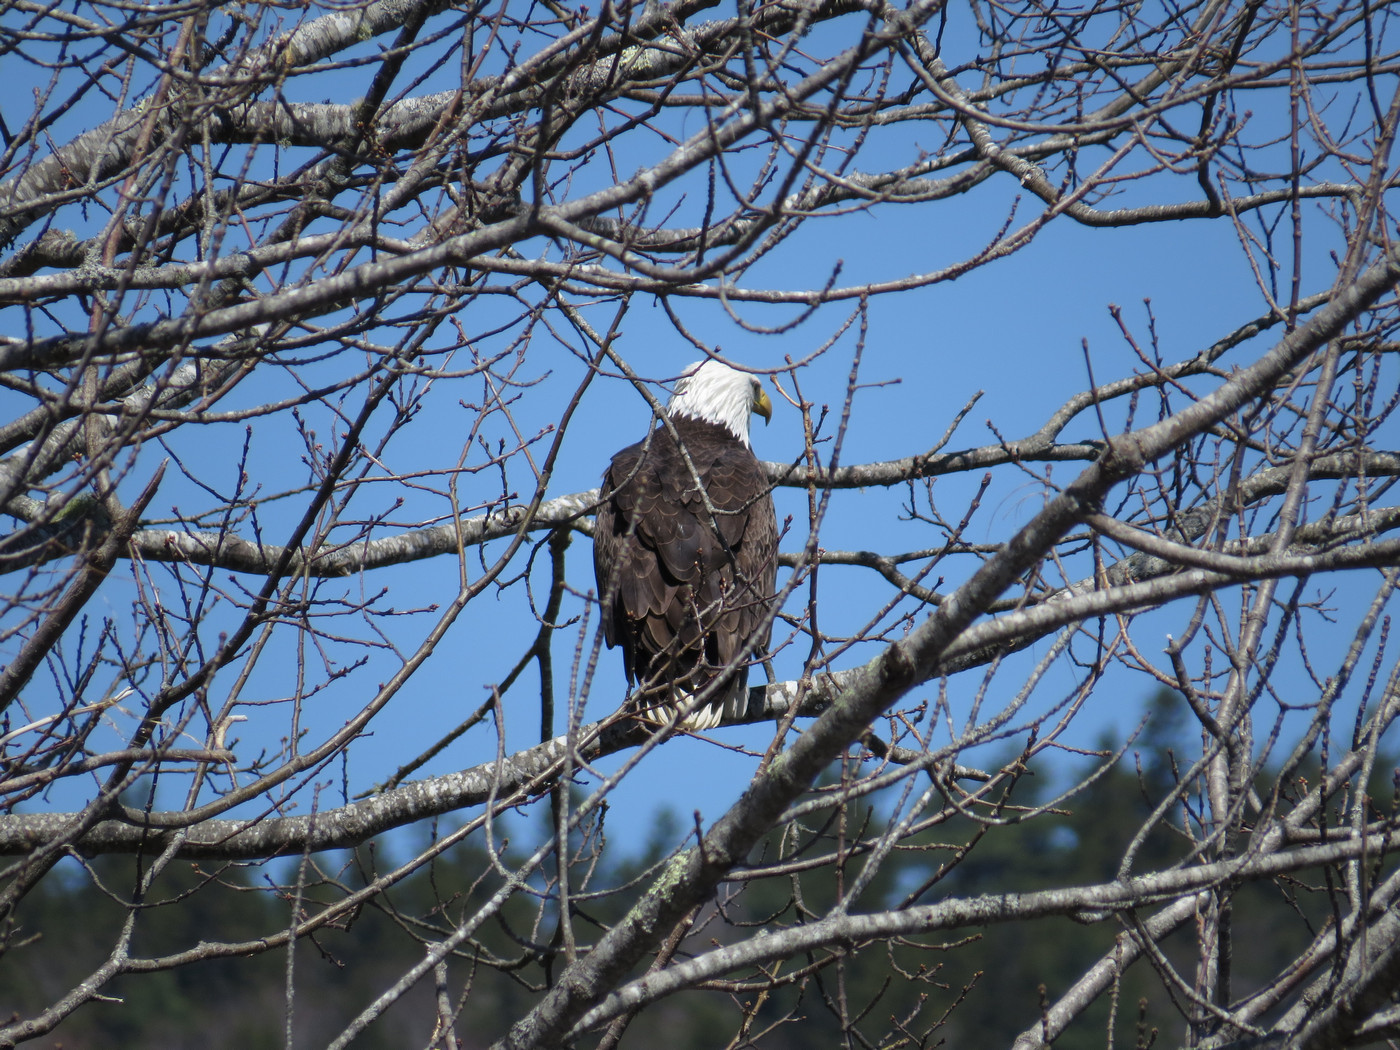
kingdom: Animalia
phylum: Chordata
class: Aves
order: Accipitriformes
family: Accipitridae
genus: Haliaeetus
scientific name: Haliaeetus leucocephalus
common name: Bald eagle
